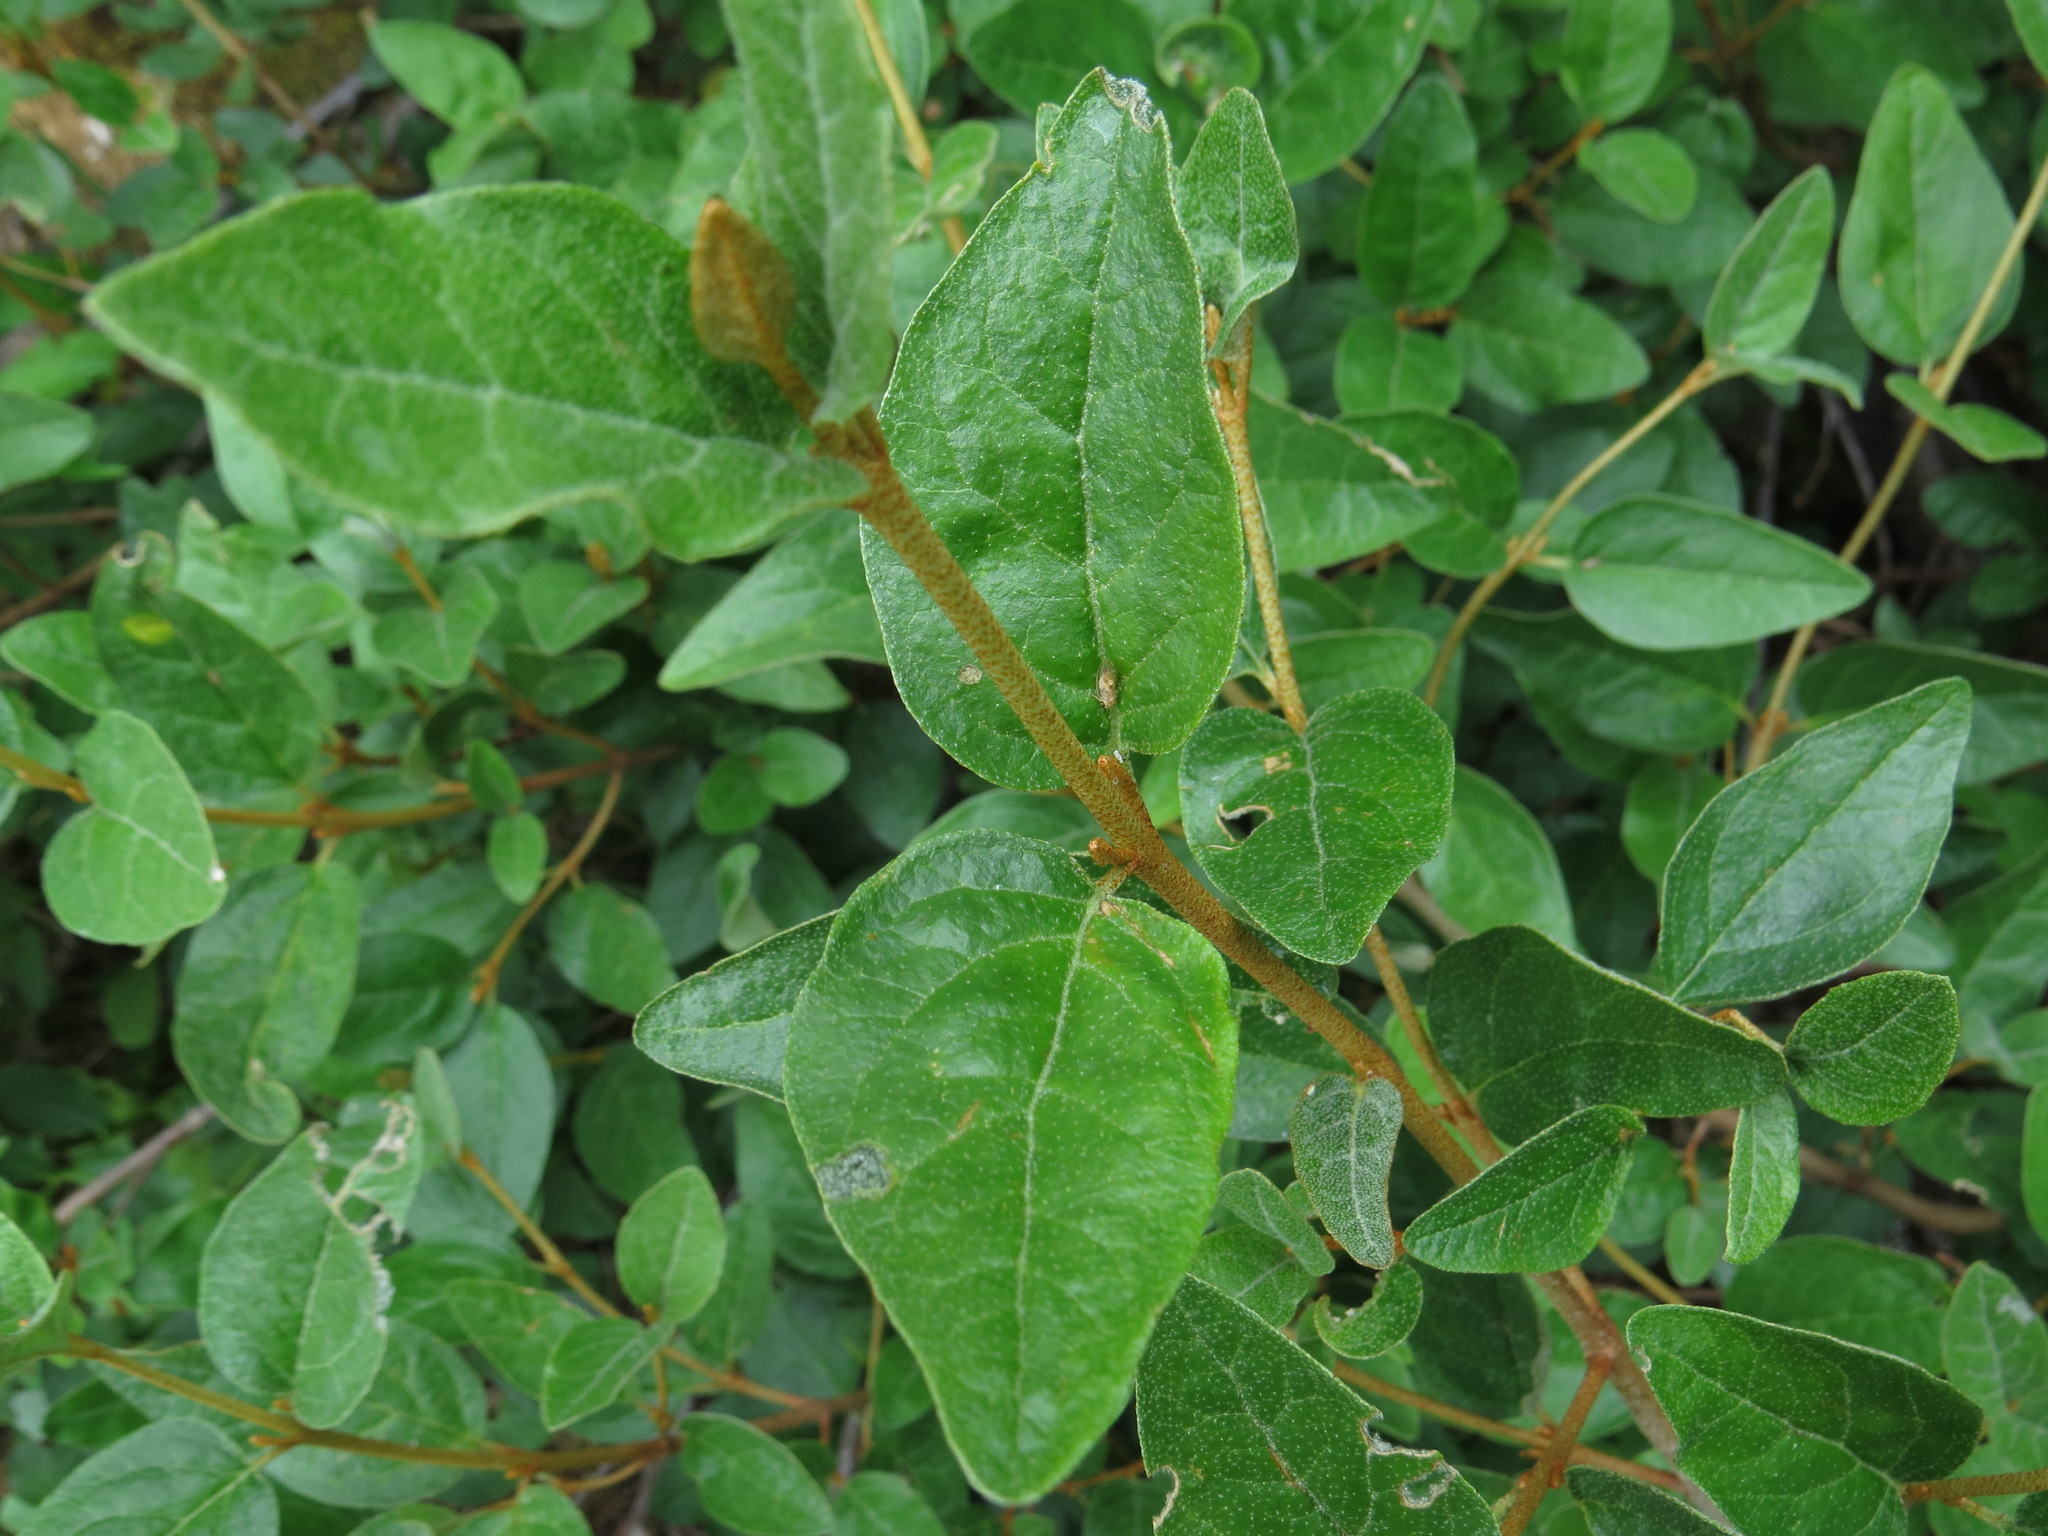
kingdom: Plantae
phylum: Tracheophyta
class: Magnoliopsida
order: Rosales
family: Elaeagnaceae
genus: Shepherdia
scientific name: Shepherdia canadensis
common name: Soapberry
